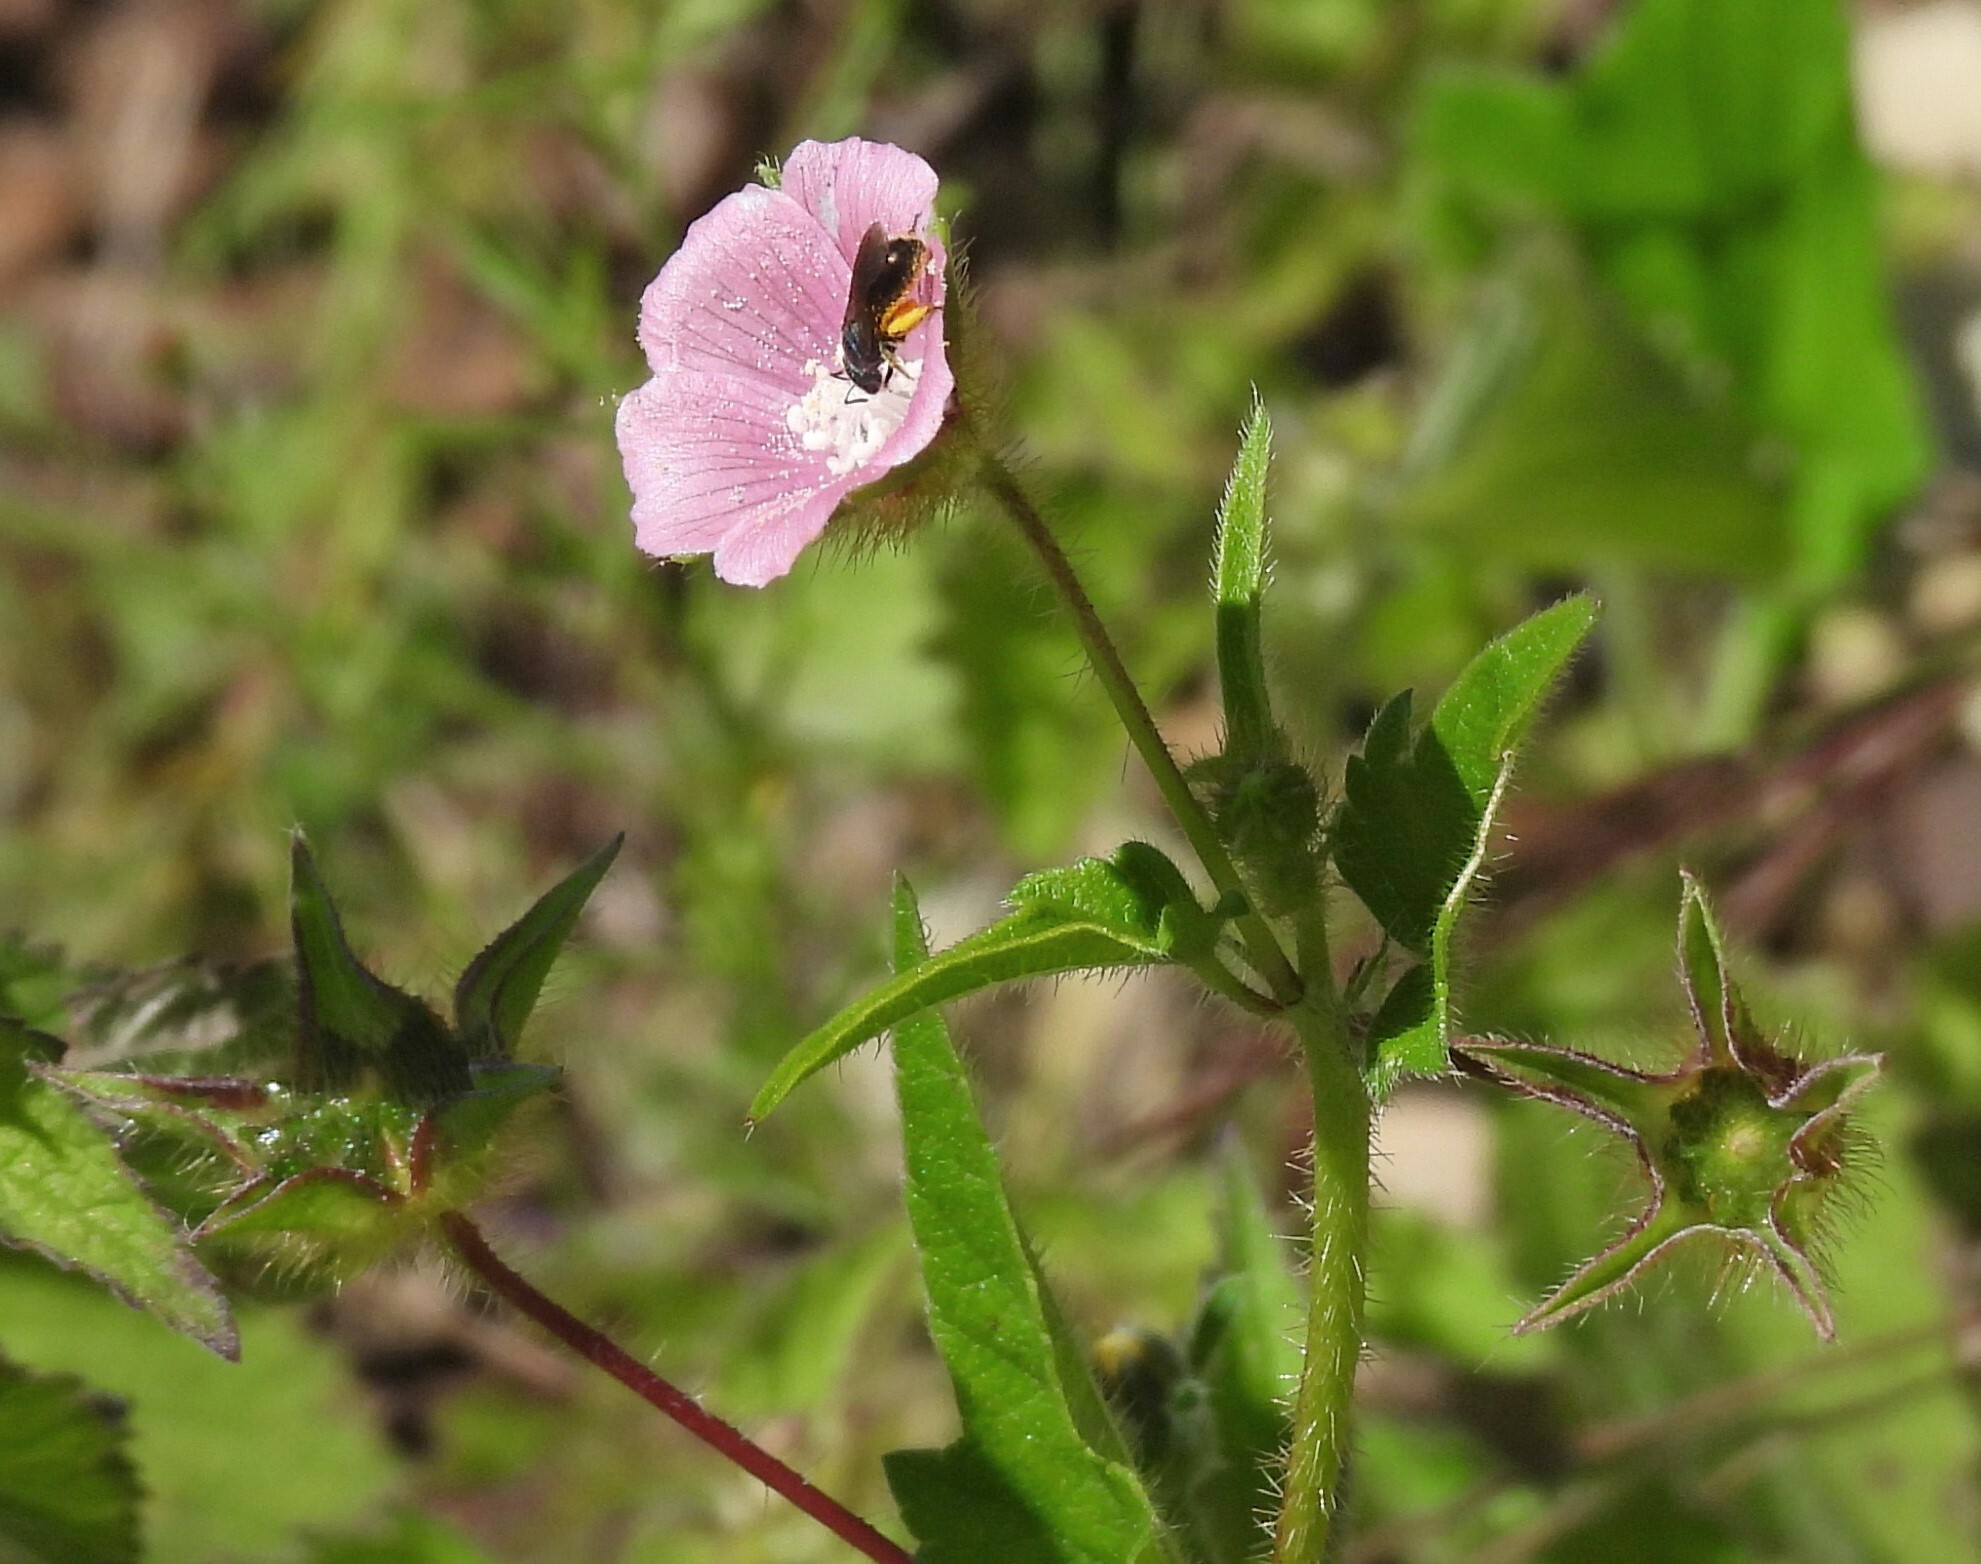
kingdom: Plantae
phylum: Tracheophyta
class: Magnoliopsida
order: Malvales
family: Malvaceae
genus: Anoda
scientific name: Anoda cristata
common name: Spurred anoda
